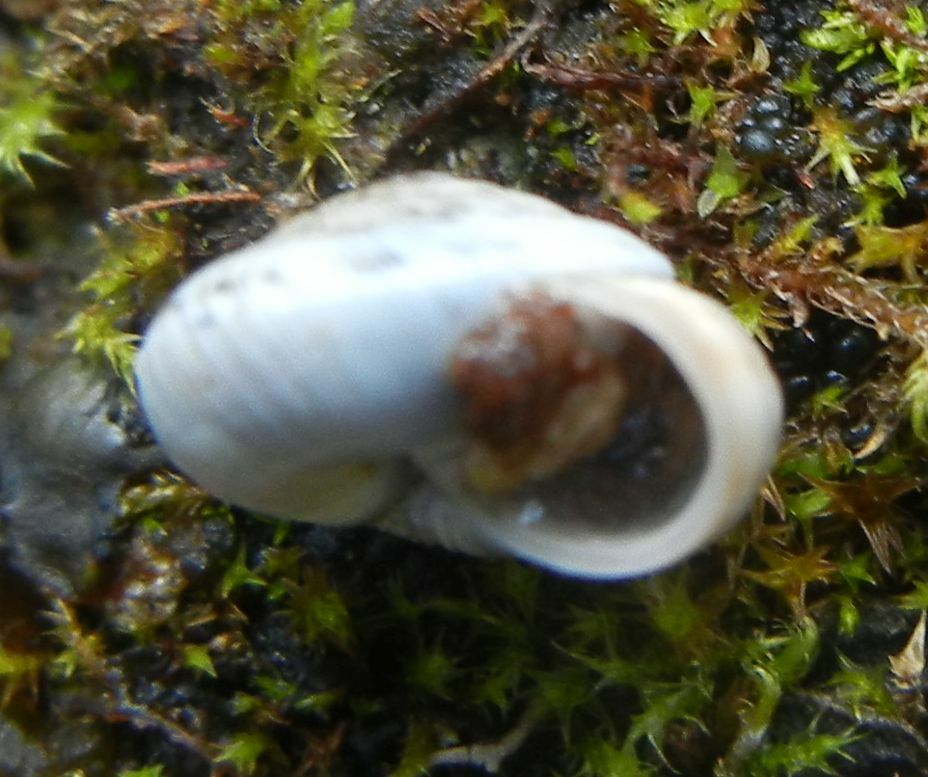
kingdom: Animalia
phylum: Mollusca
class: Gastropoda
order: Stylommatophora
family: Geomitridae
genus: Xeroplexa
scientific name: Xeroplexa intersecta
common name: Wrinkled snail
